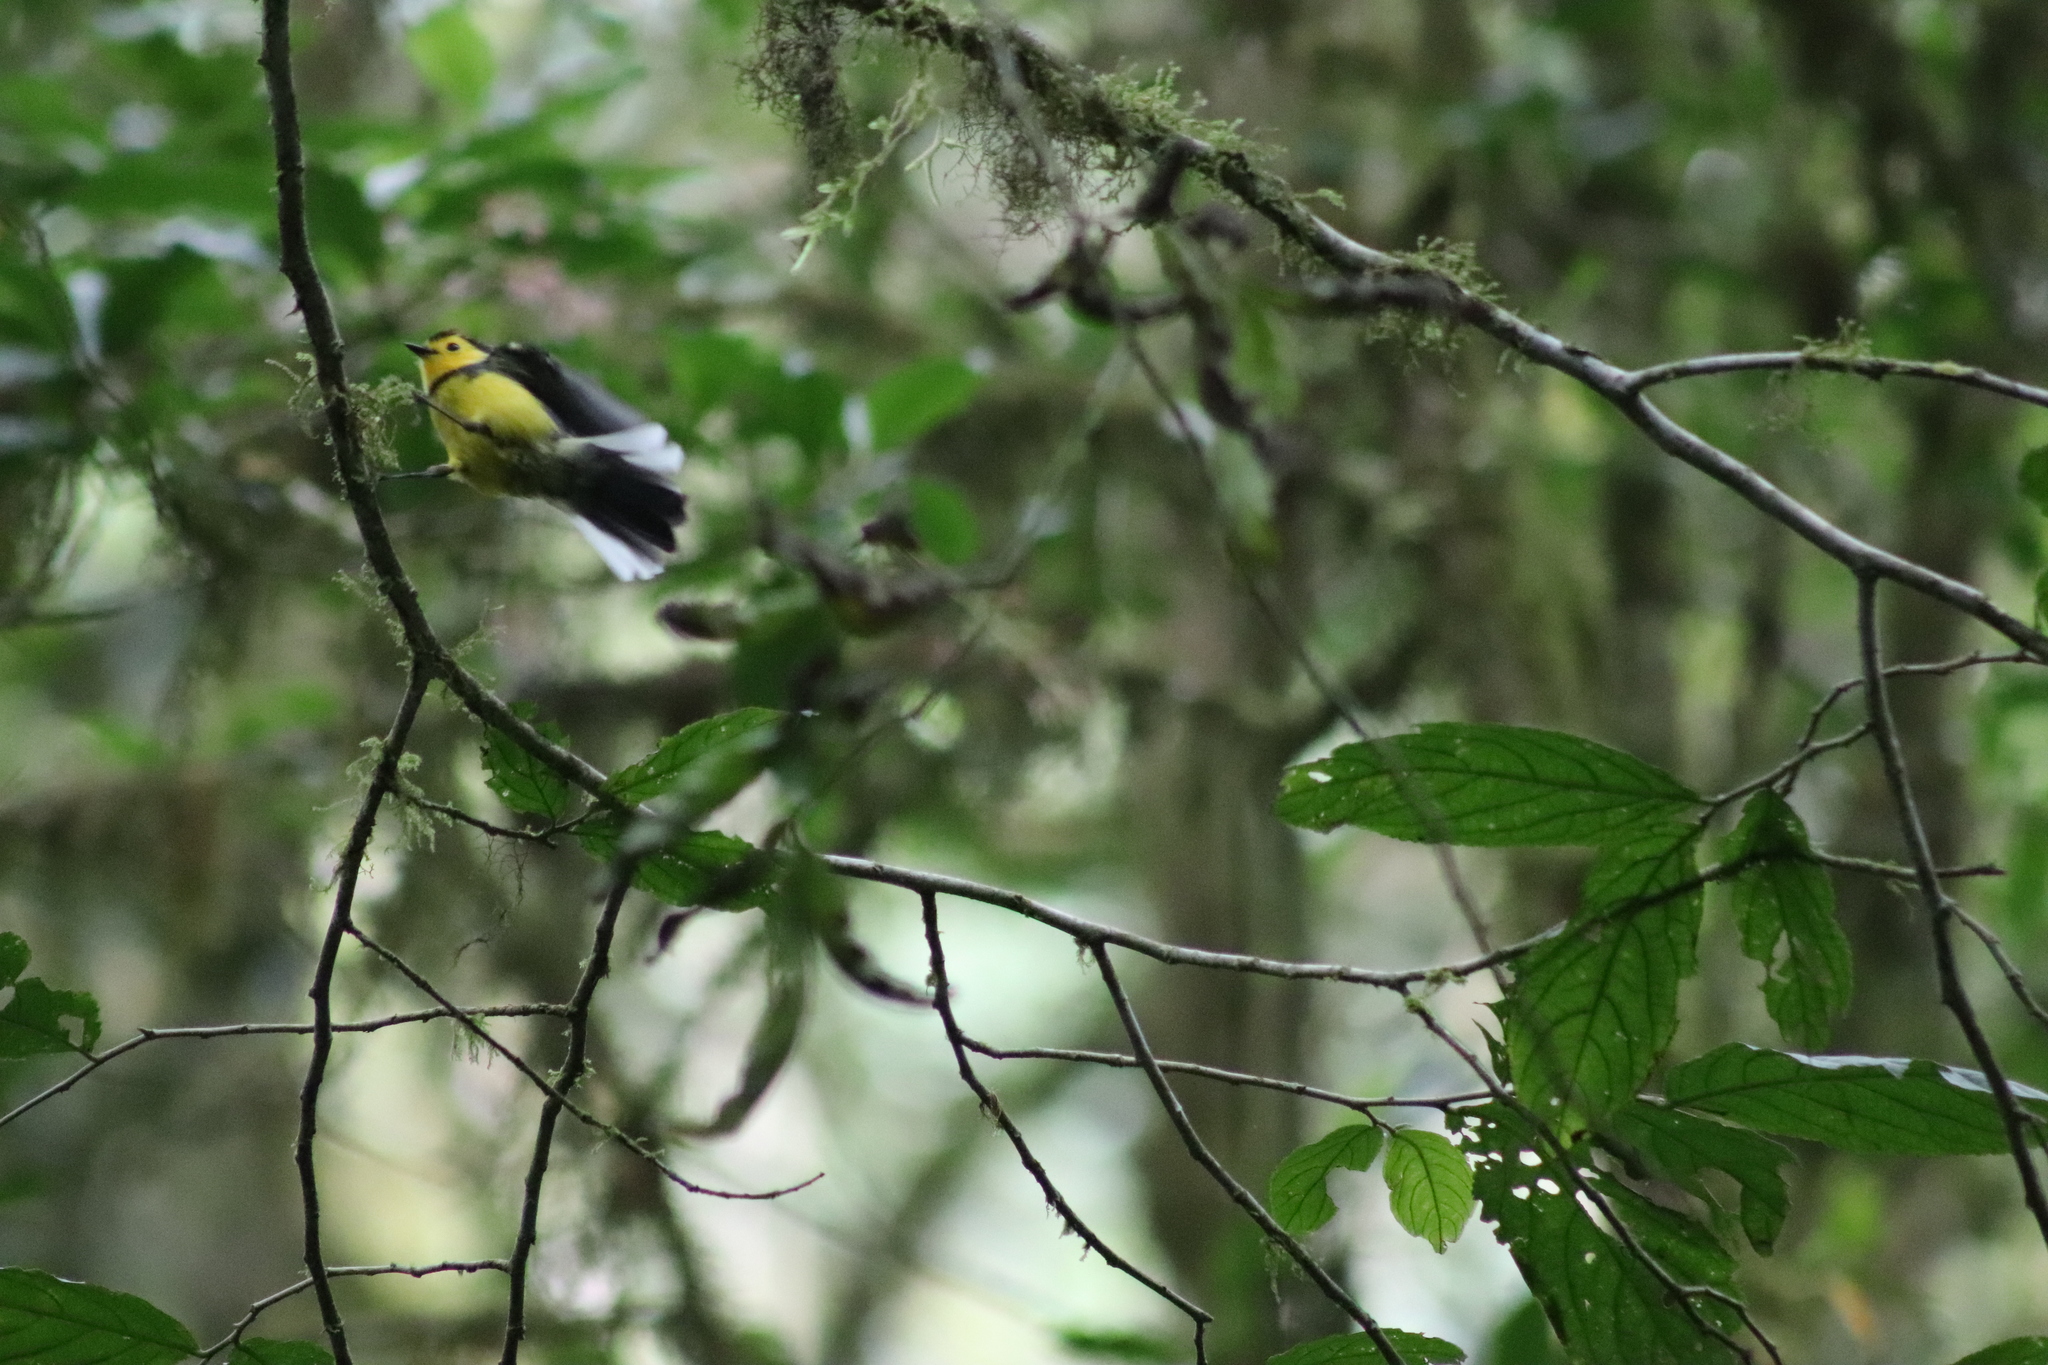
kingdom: Animalia
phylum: Chordata
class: Aves
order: Passeriformes
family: Parulidae
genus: Myioborus
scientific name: Myioborus torquatus
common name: Collared whitestart
